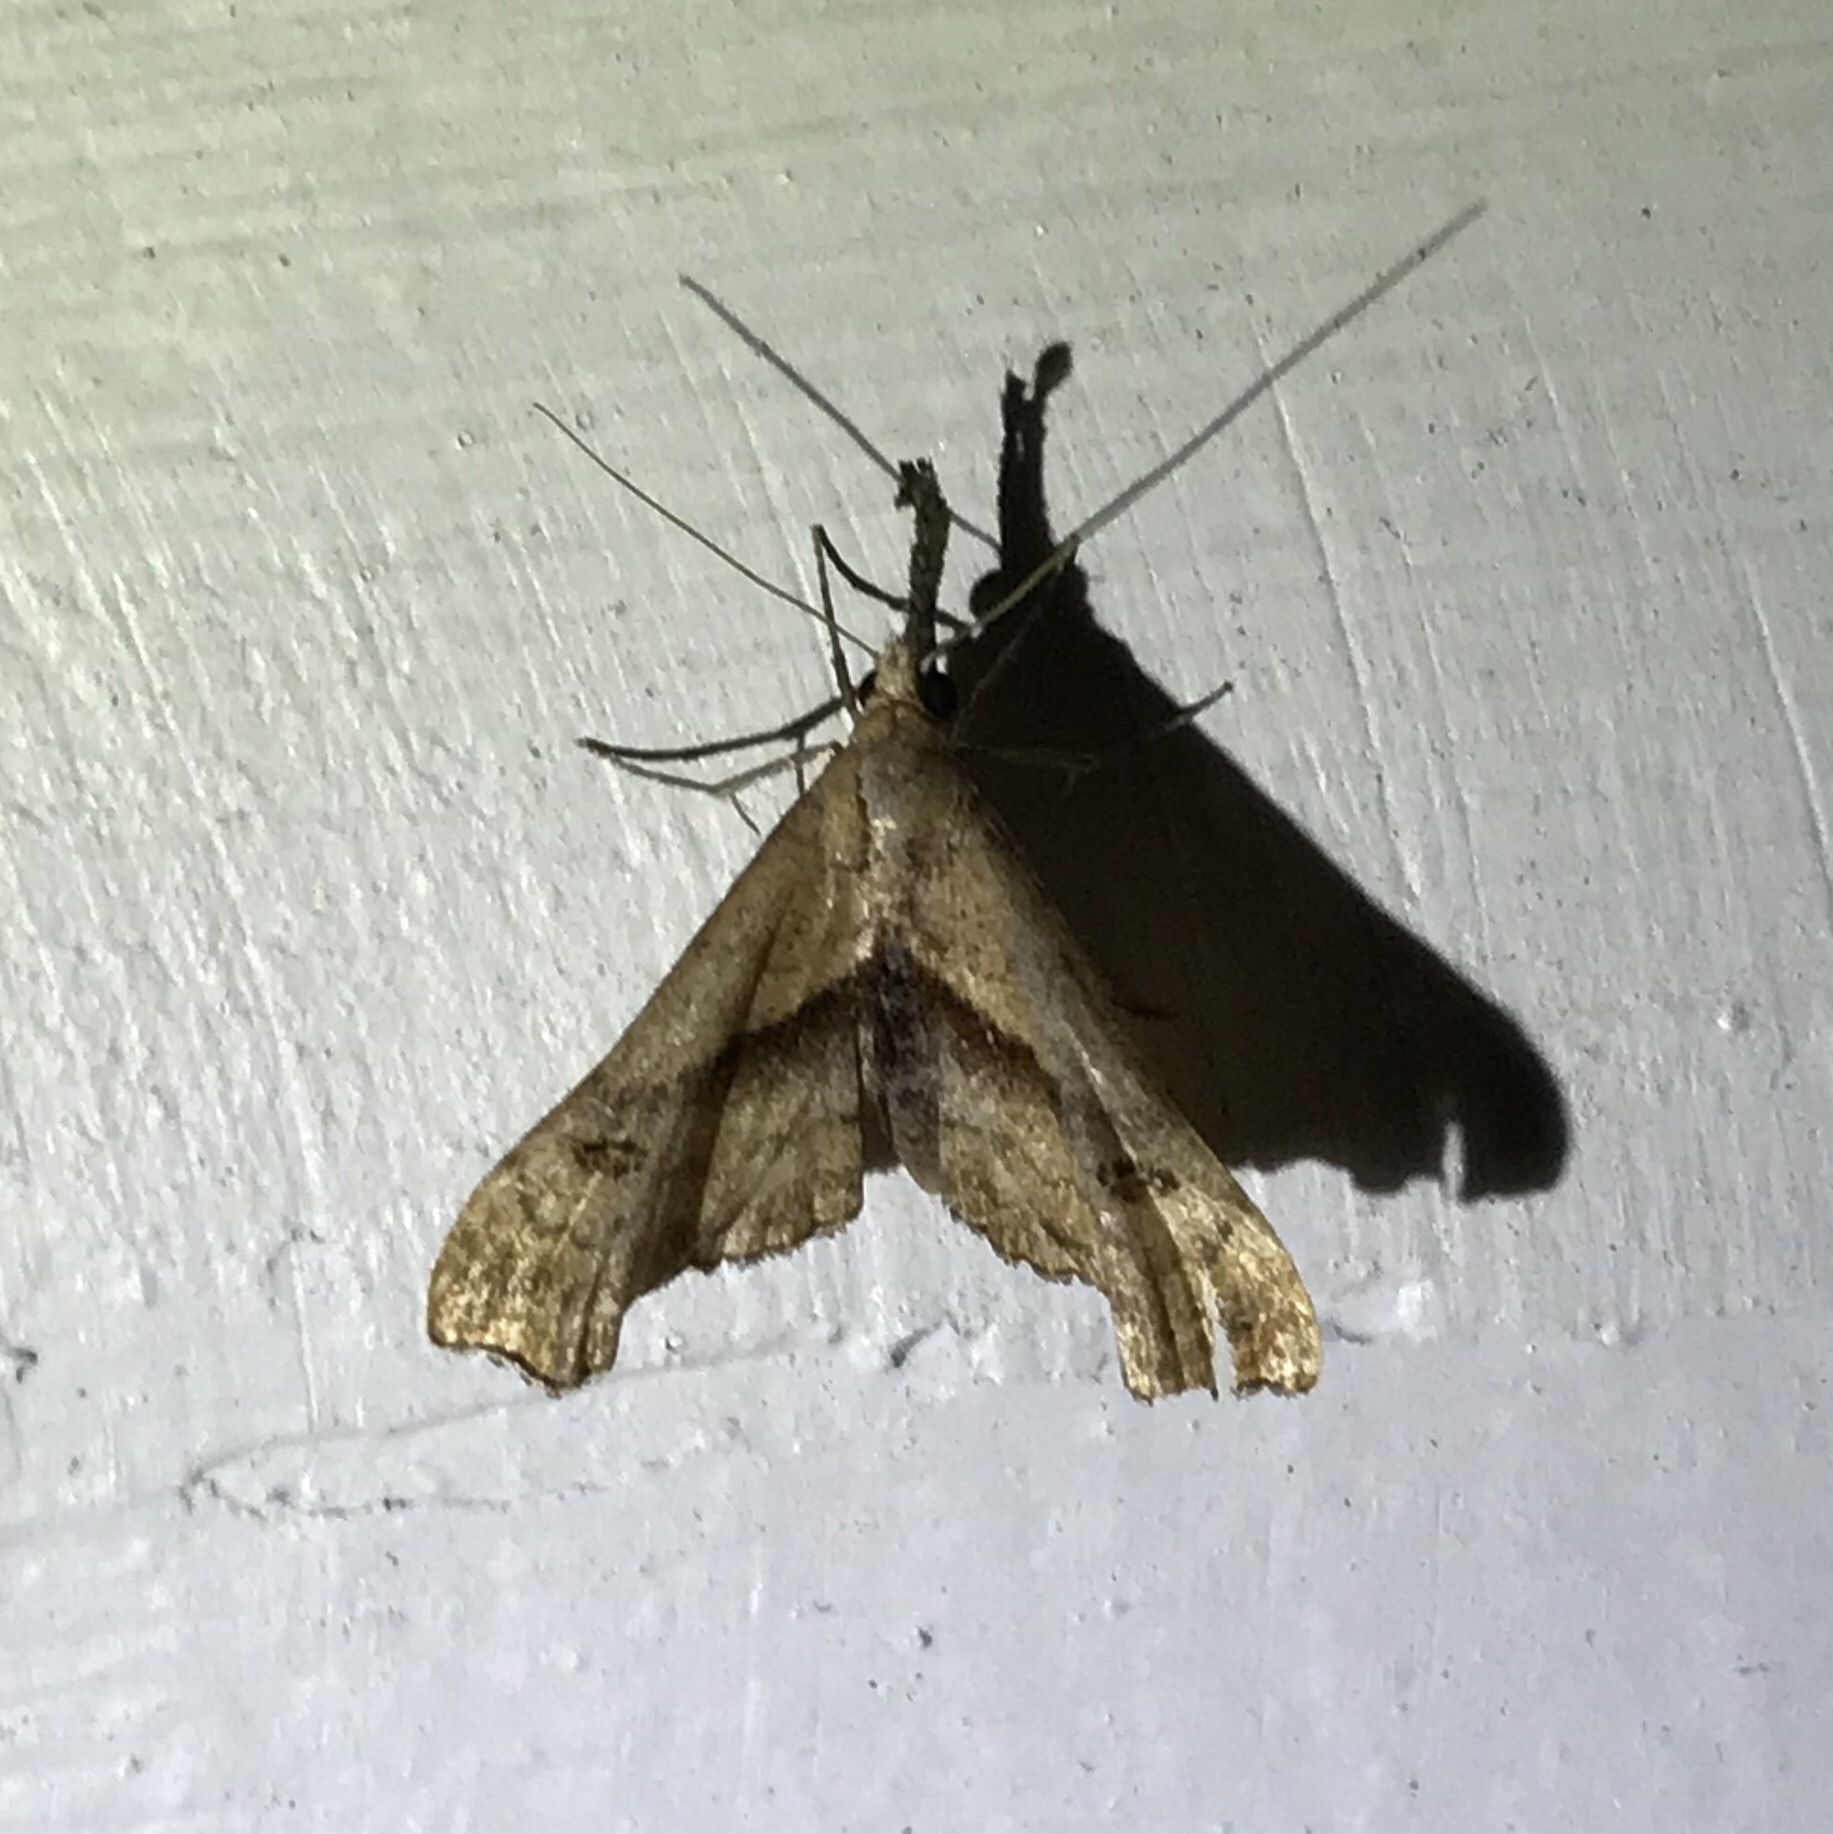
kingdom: Animalia
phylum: Arthropoda
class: Insecta
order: Lepidoptera
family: Erebidae
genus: Palthis
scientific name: Palthis angulalis
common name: Dark-spotted palthis moth
